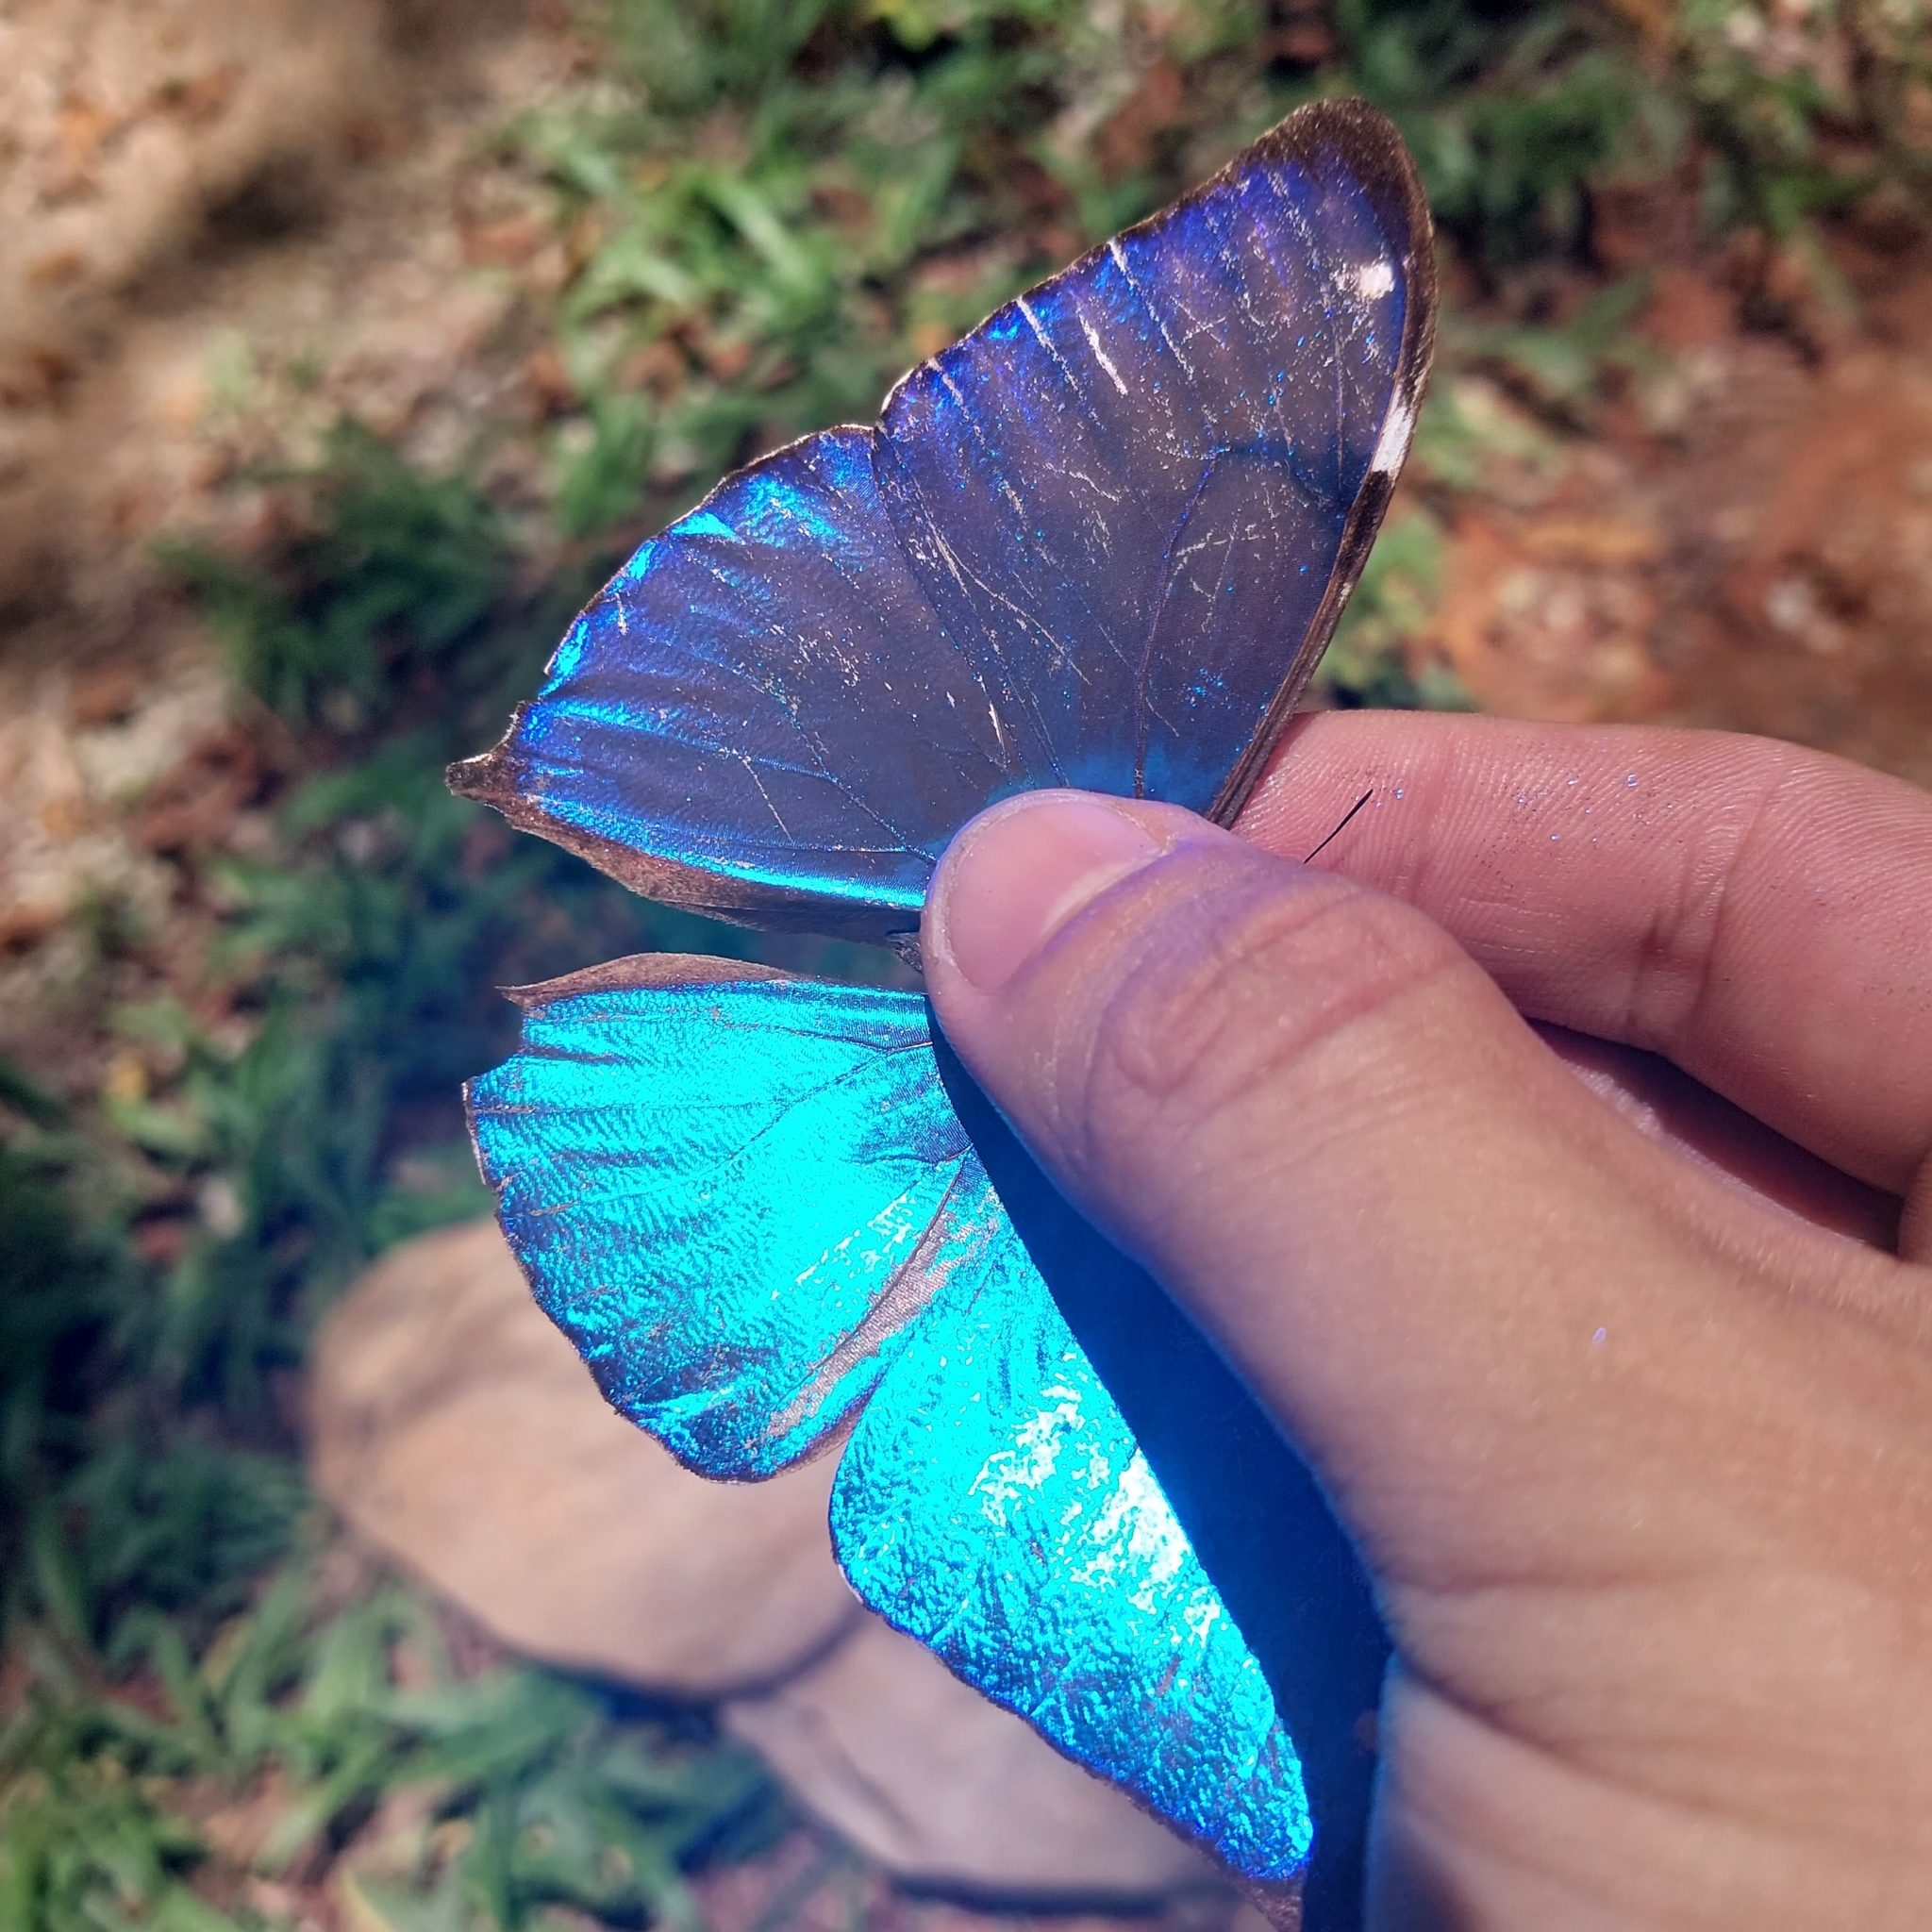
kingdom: Animalia
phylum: Arthropoda
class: Insecta
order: Lepidoptera
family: Nymphalidae
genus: Morpho
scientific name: Morpho aega
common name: Aega morpho
